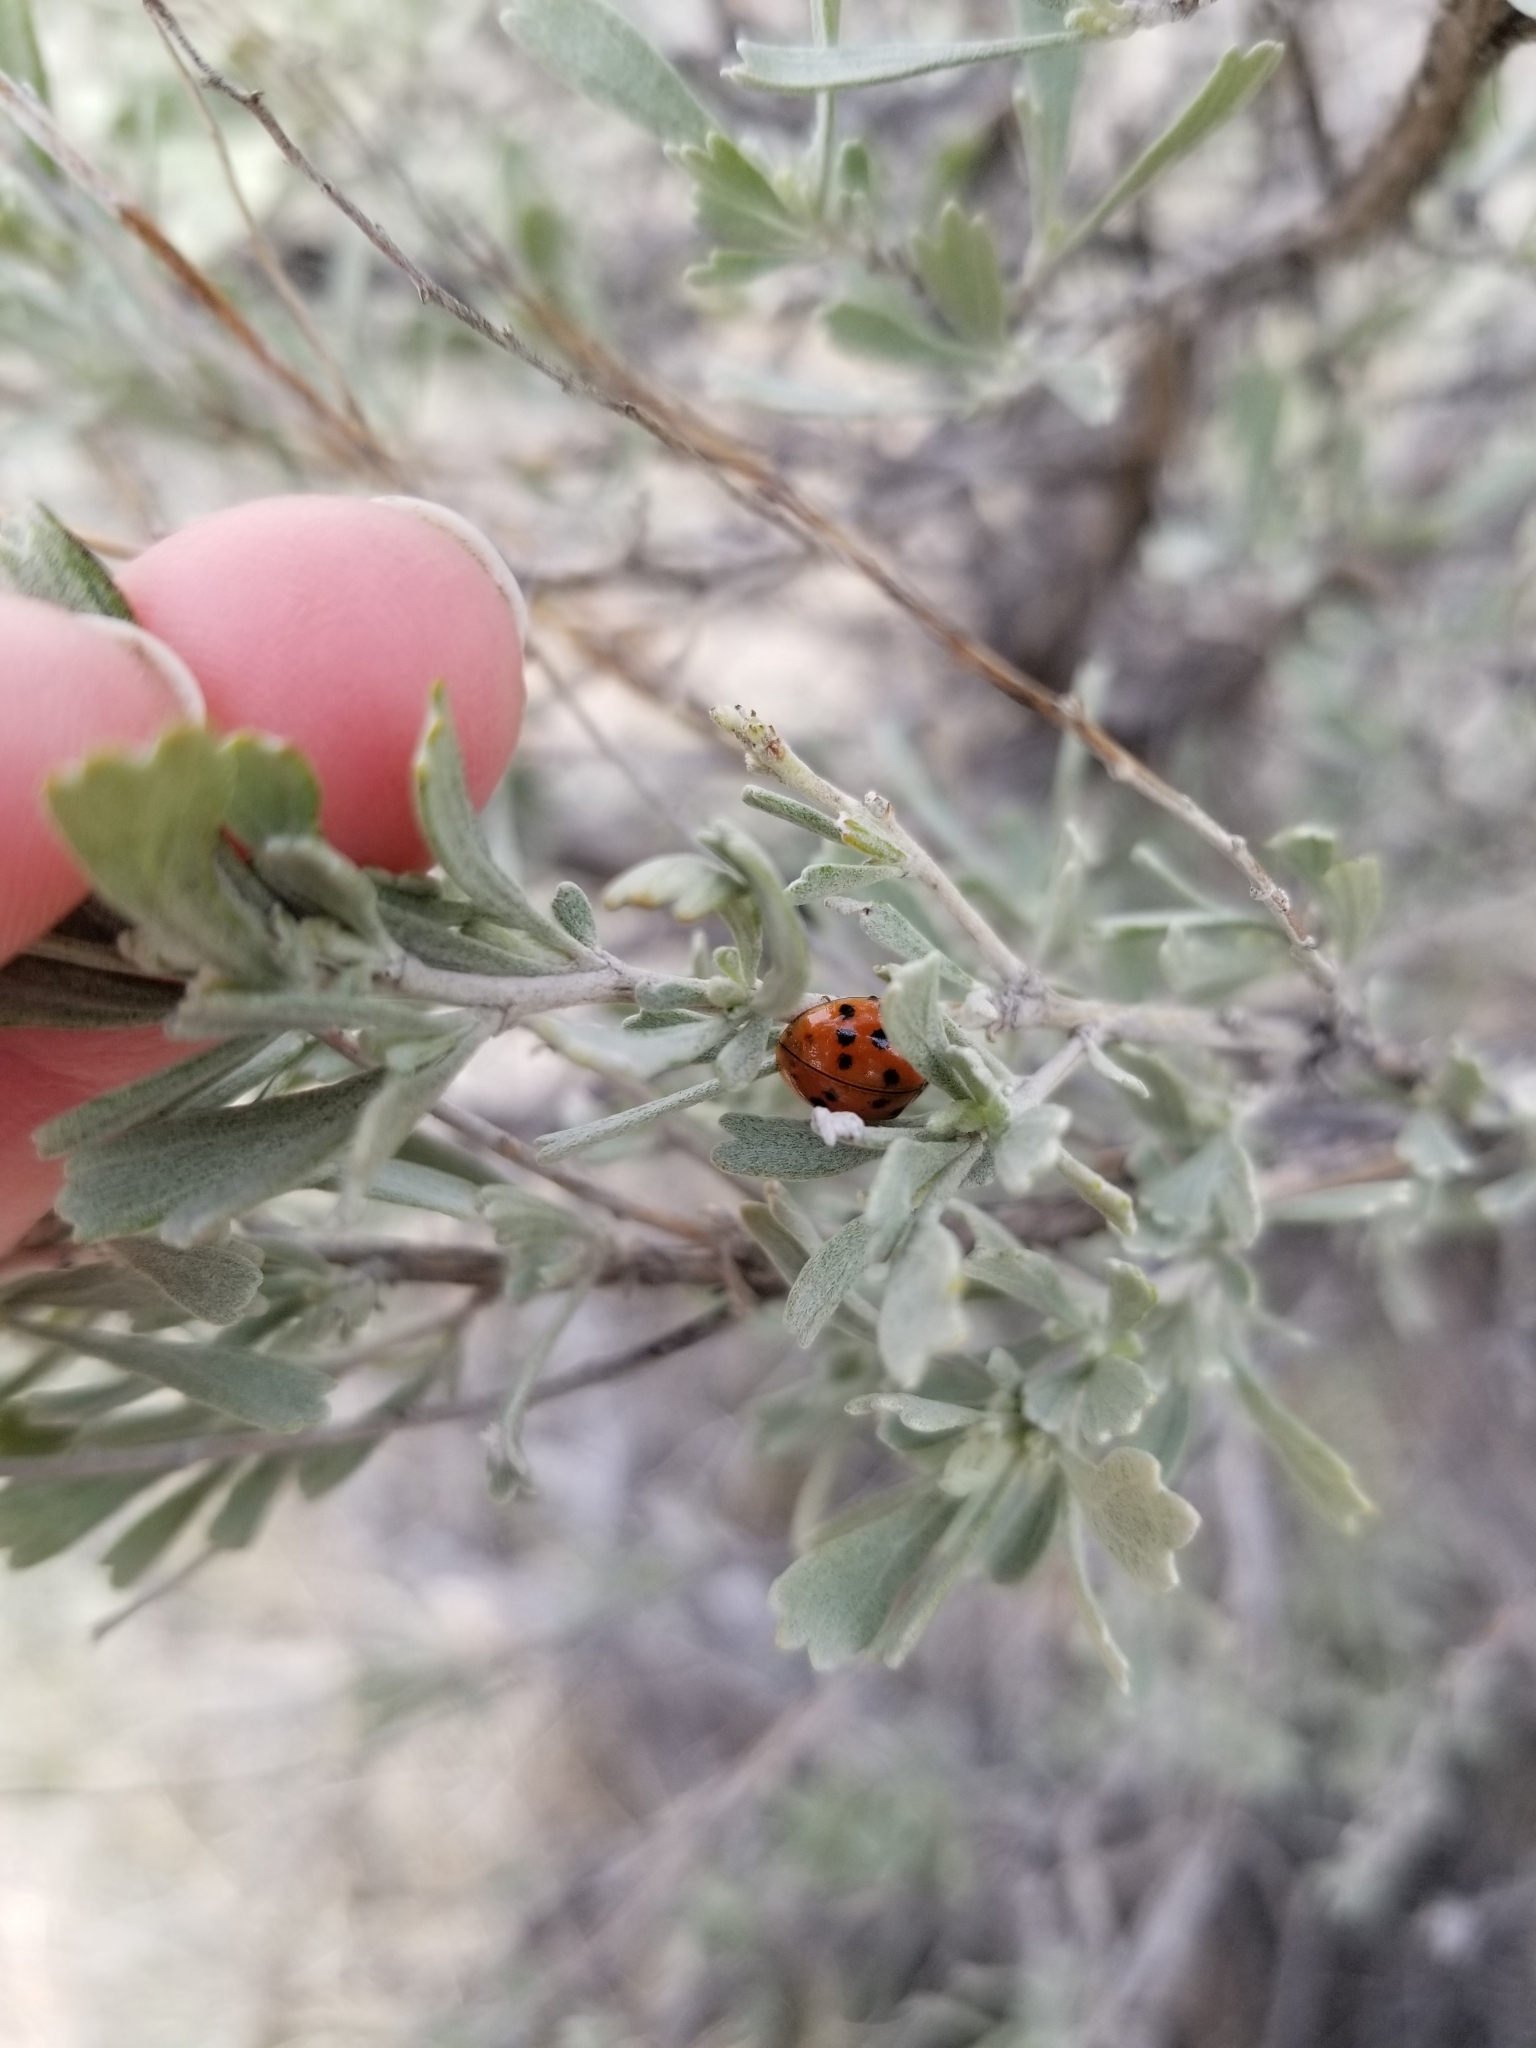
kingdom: Animalia
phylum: Arthropoda
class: Insecta
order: Coleoptera
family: Coccinellidae
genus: Harmonia
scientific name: Harmonia axyridis
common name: Harlequin ladybird
